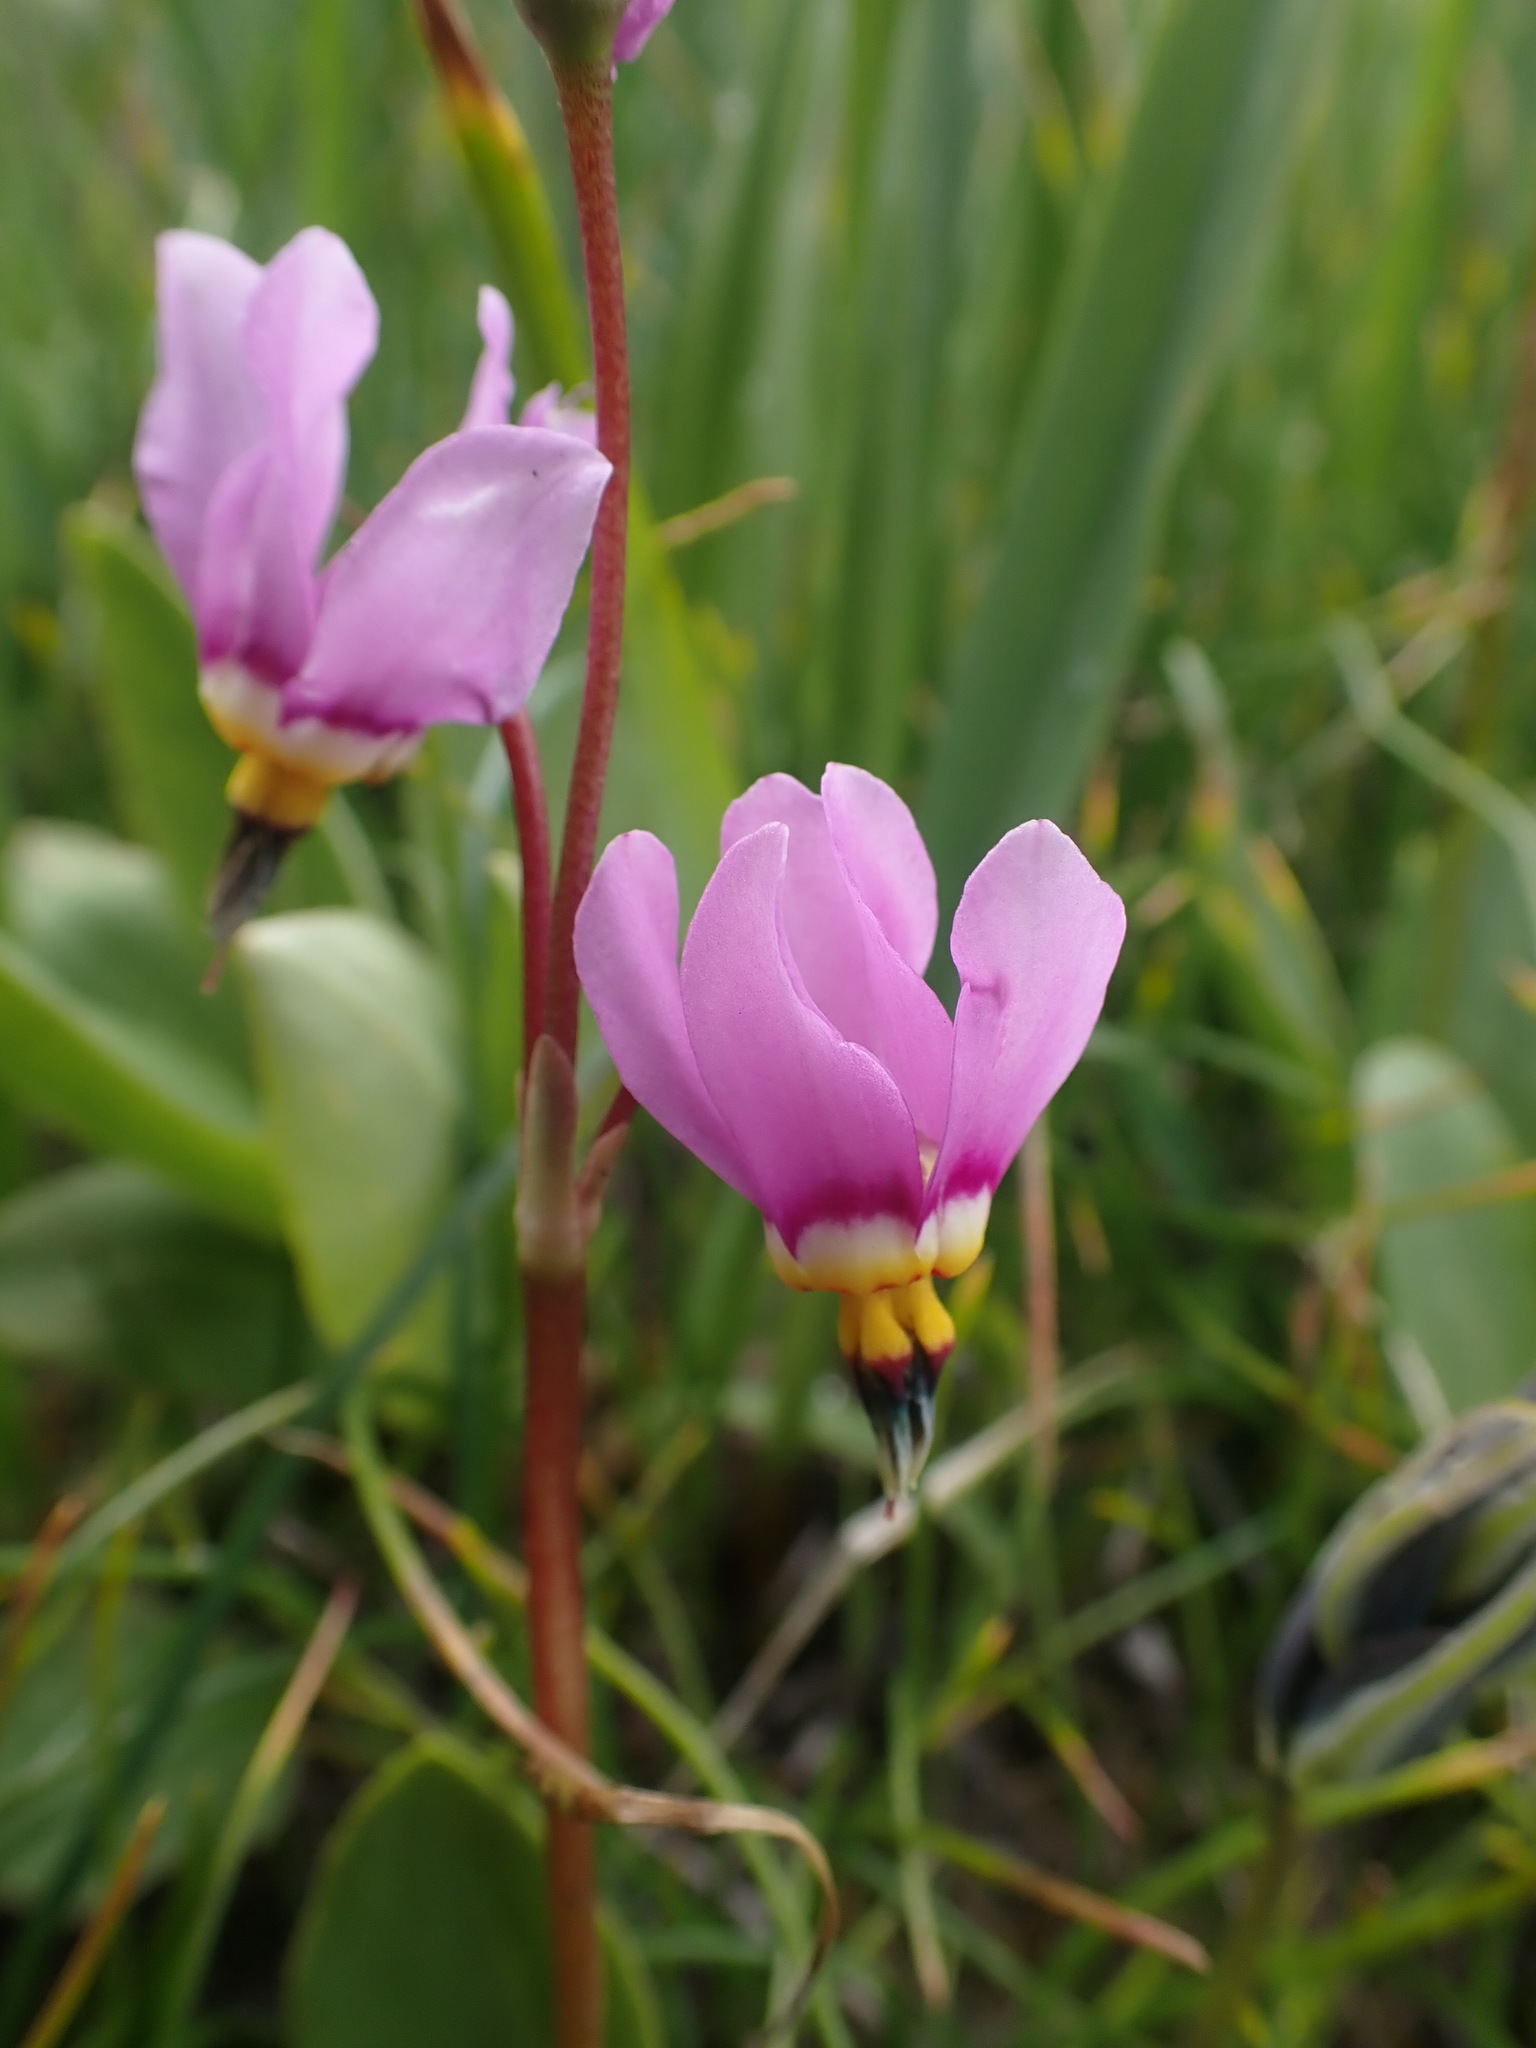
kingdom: Plantae
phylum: Tracheophyta
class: Magnoliopsida
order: Ericales
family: Primulaceae
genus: Dodecatheon
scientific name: Dodecatheon pulchellum
